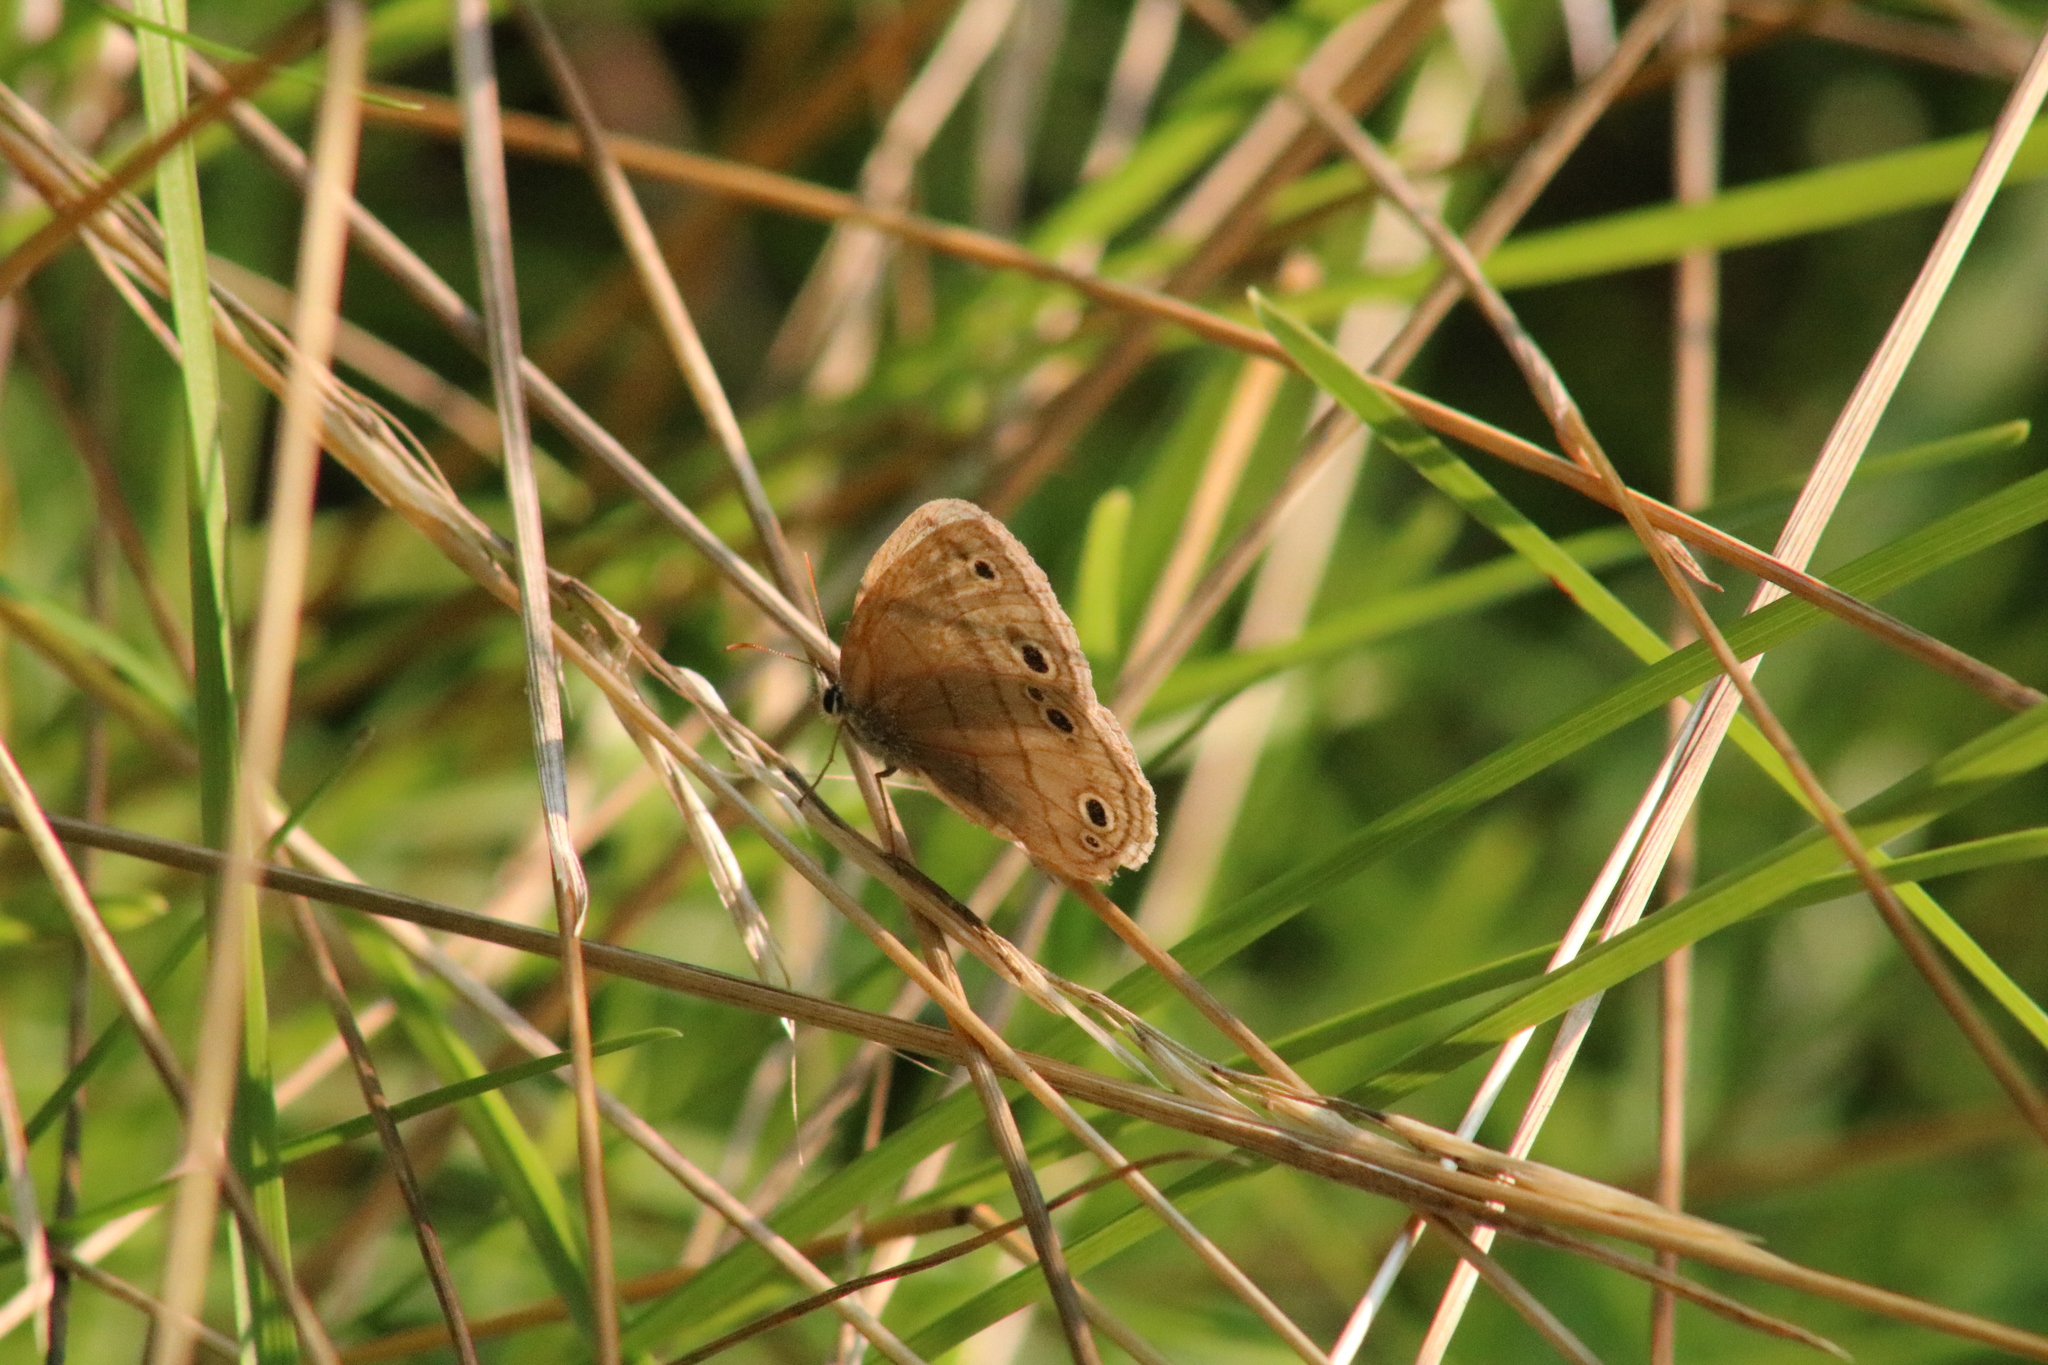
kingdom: Animalia
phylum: Arthropoda
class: Insecta
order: Lepidoptera
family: Nymphalidae
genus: Euptychia
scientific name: Euptychia cymela
